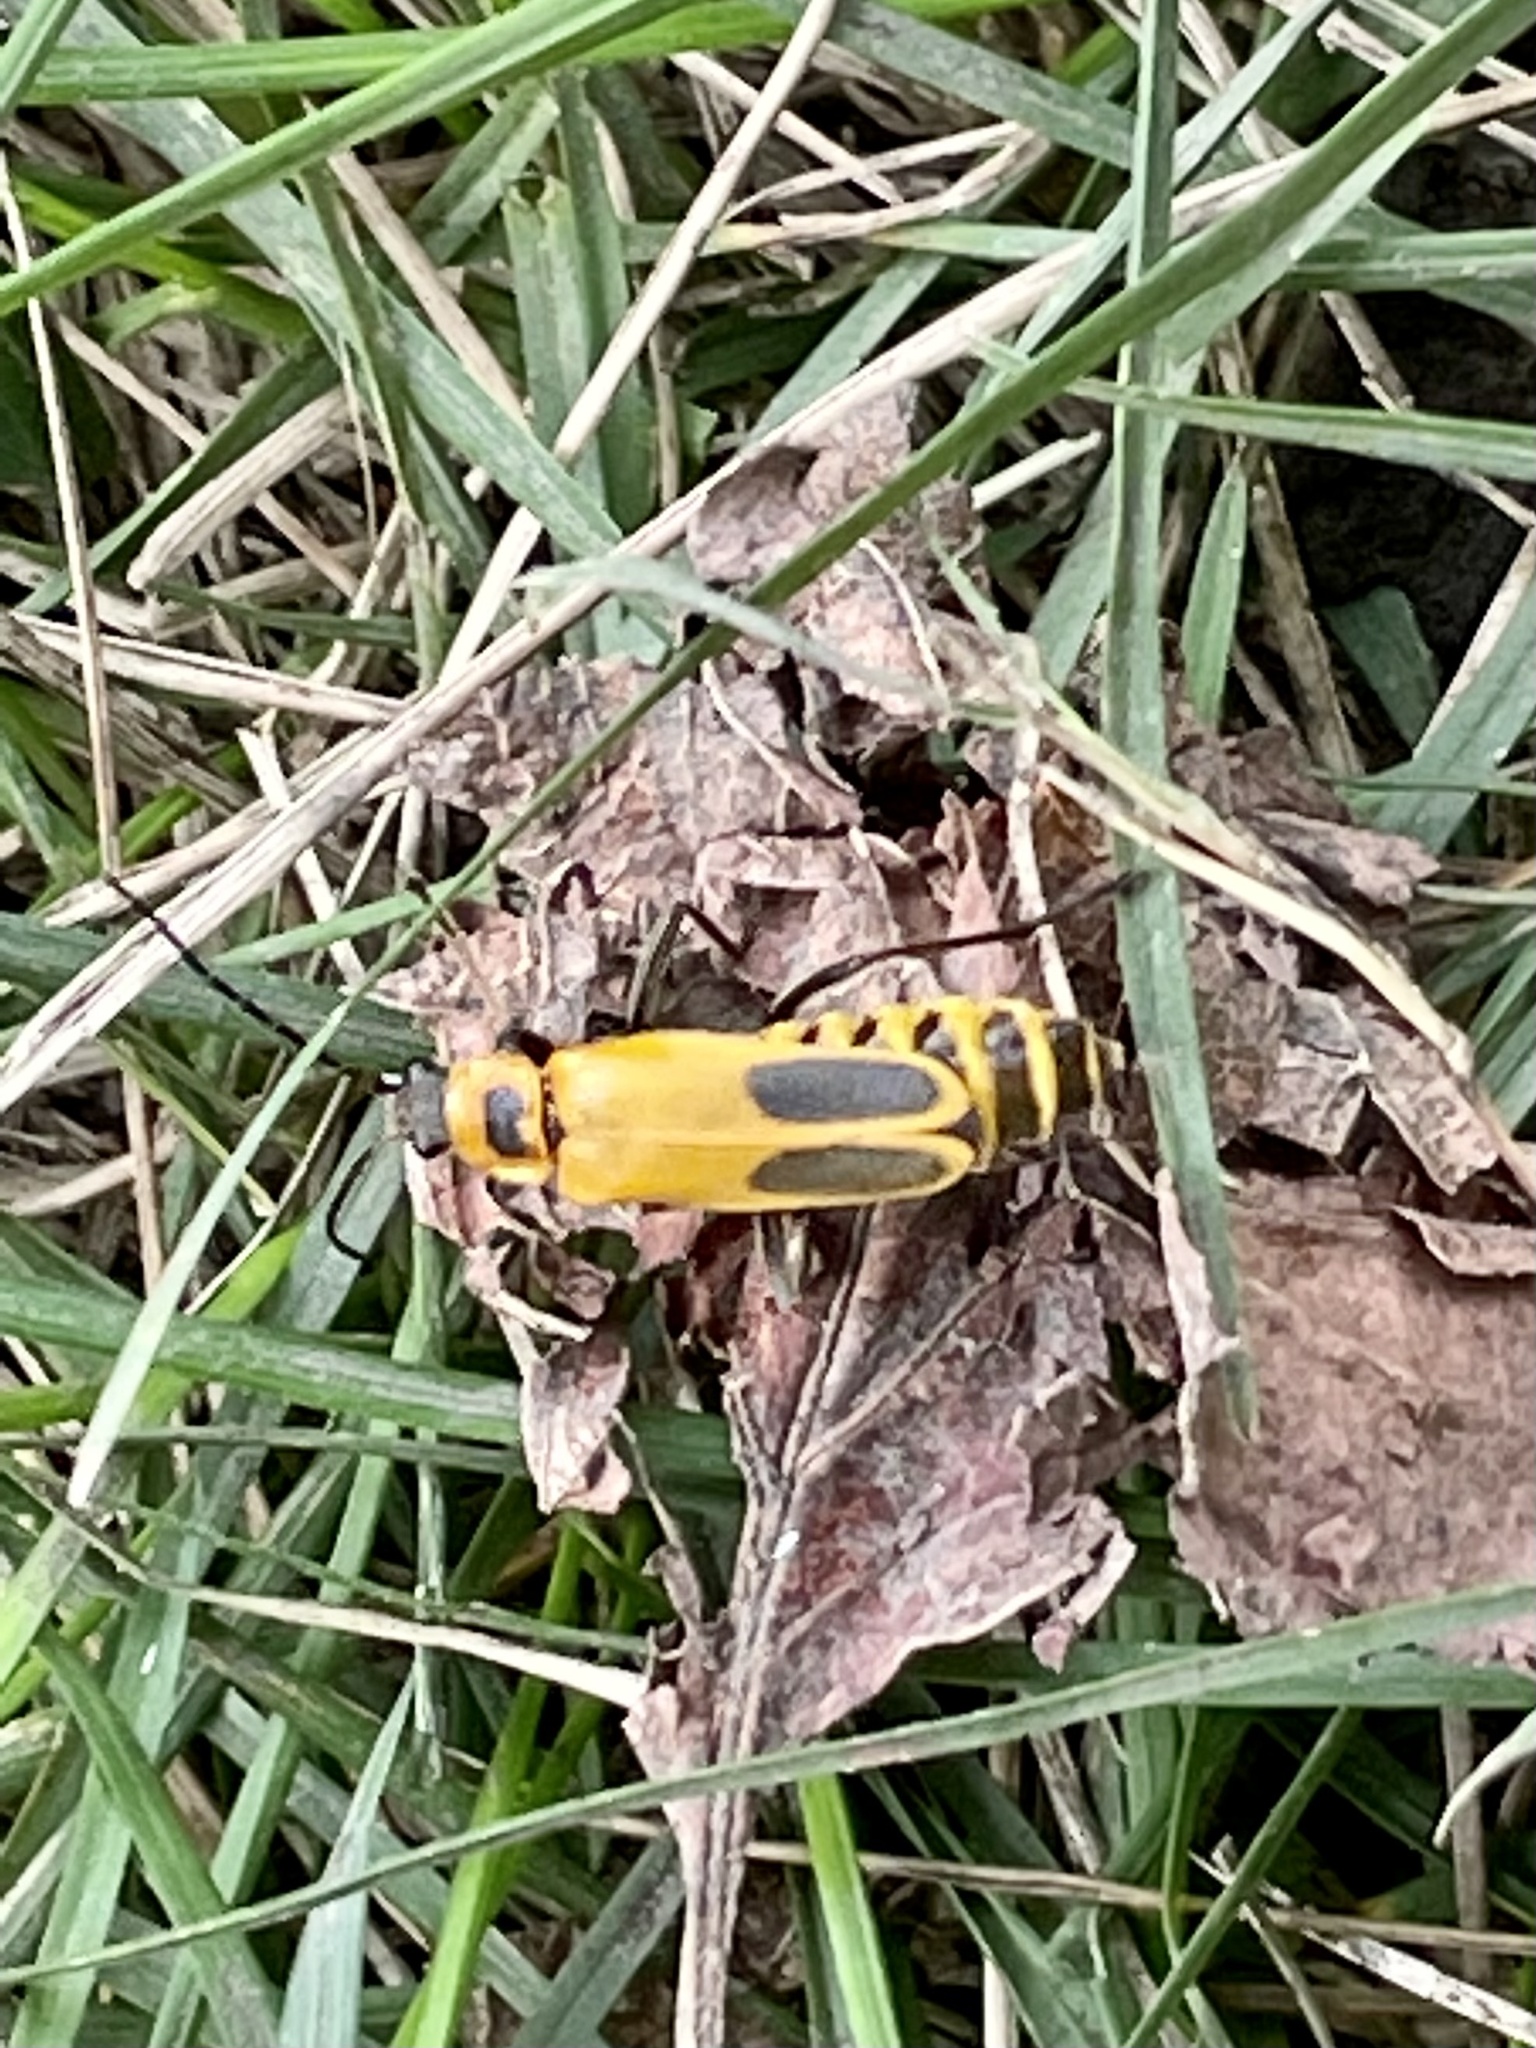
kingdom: Animalia
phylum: Arthropoda
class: Insecta
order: Coleoptera
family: Cantharidae
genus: Chauliognathus
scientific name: Chauliognathus pensylvanicus
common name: Goldenrod soldier beetle
